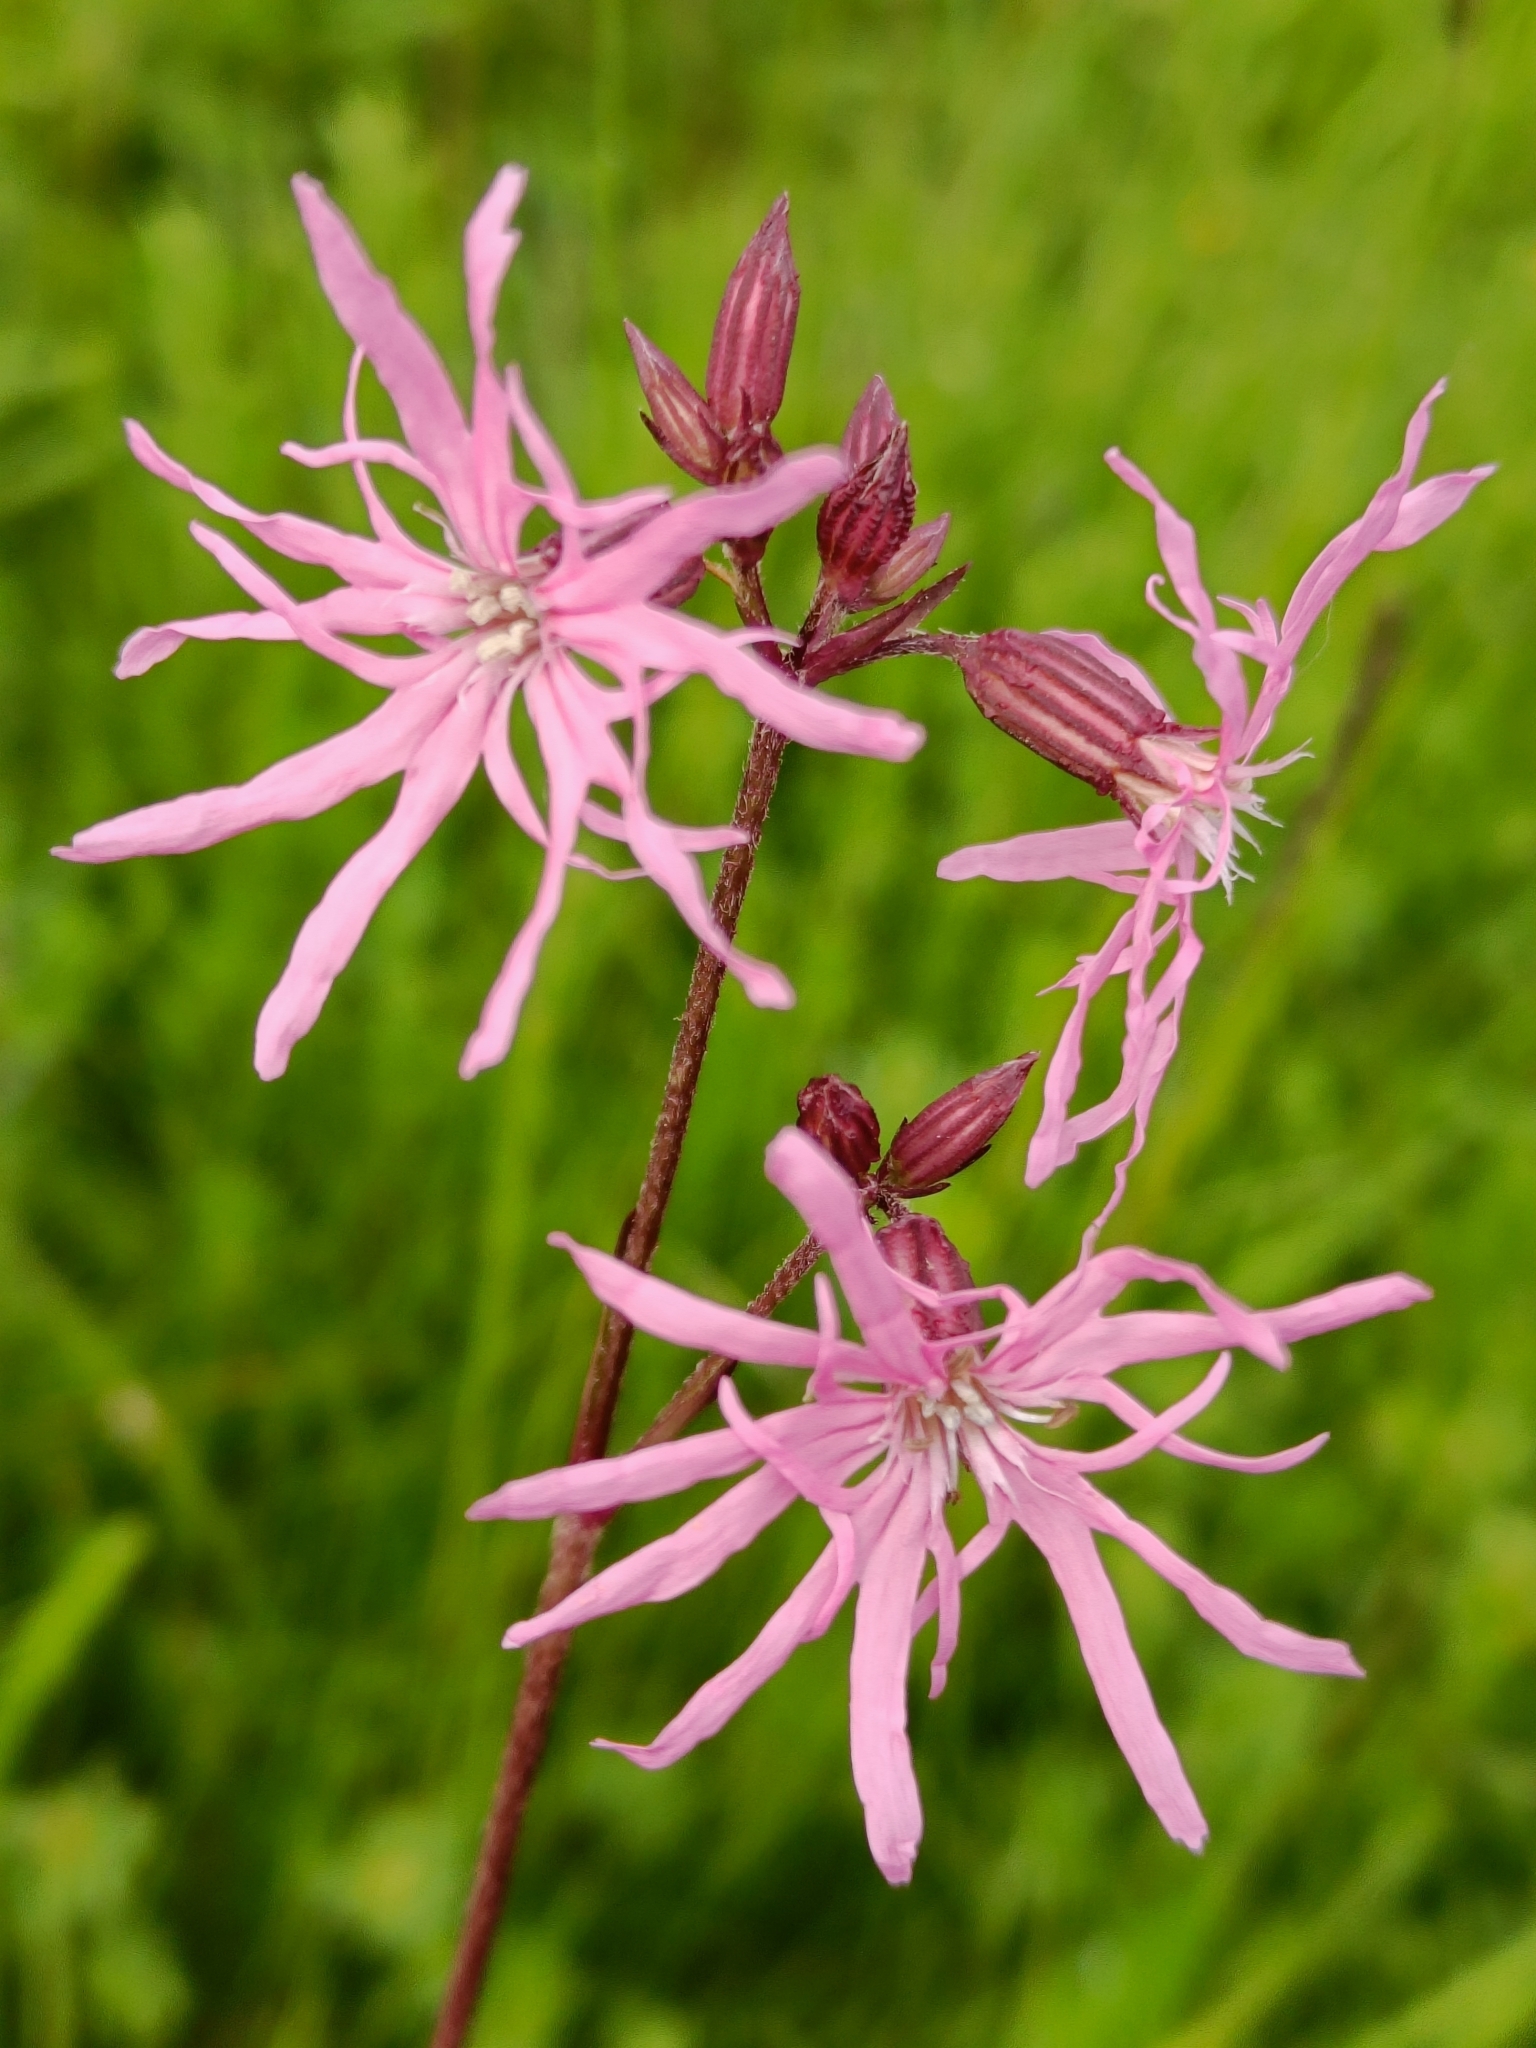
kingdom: Plantae
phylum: Tracheophyta
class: Magnoliopsida
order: Caryophyllales
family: Caryophyllaceae
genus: Silene
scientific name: Silene flos-cuculi
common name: Ragged-robin
